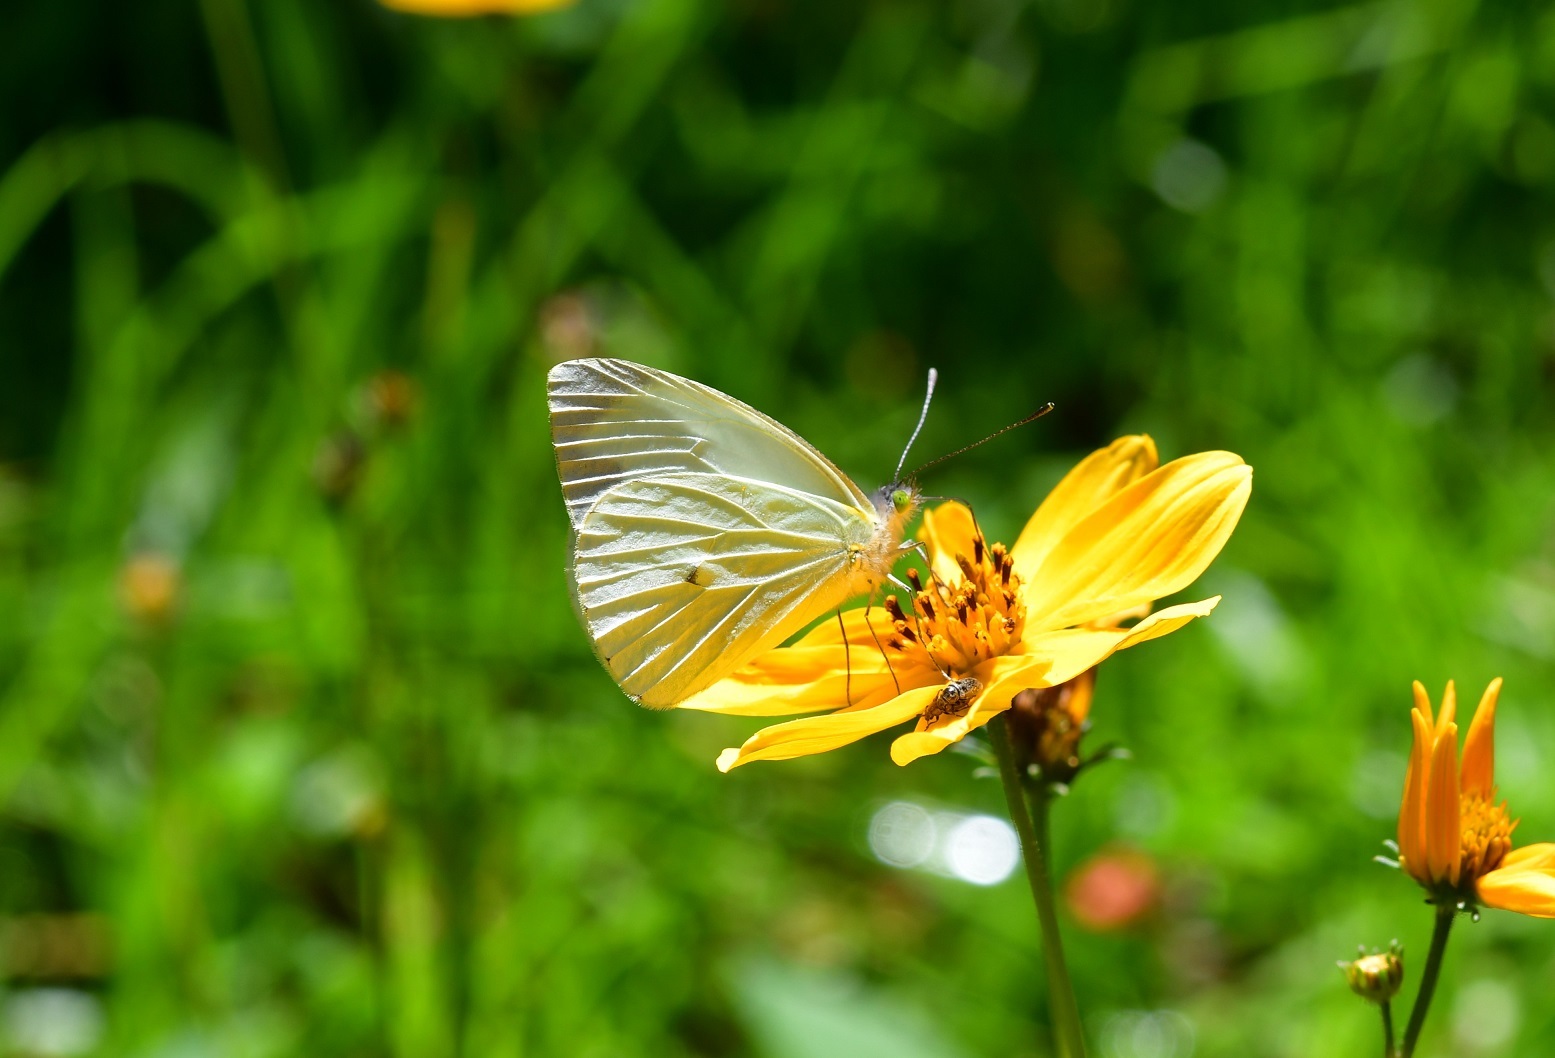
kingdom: Animalia
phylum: Arthropoda
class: Insecta
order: Lepidoptera
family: Pieridae
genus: Leptophobia
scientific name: Leptophobia aripa
